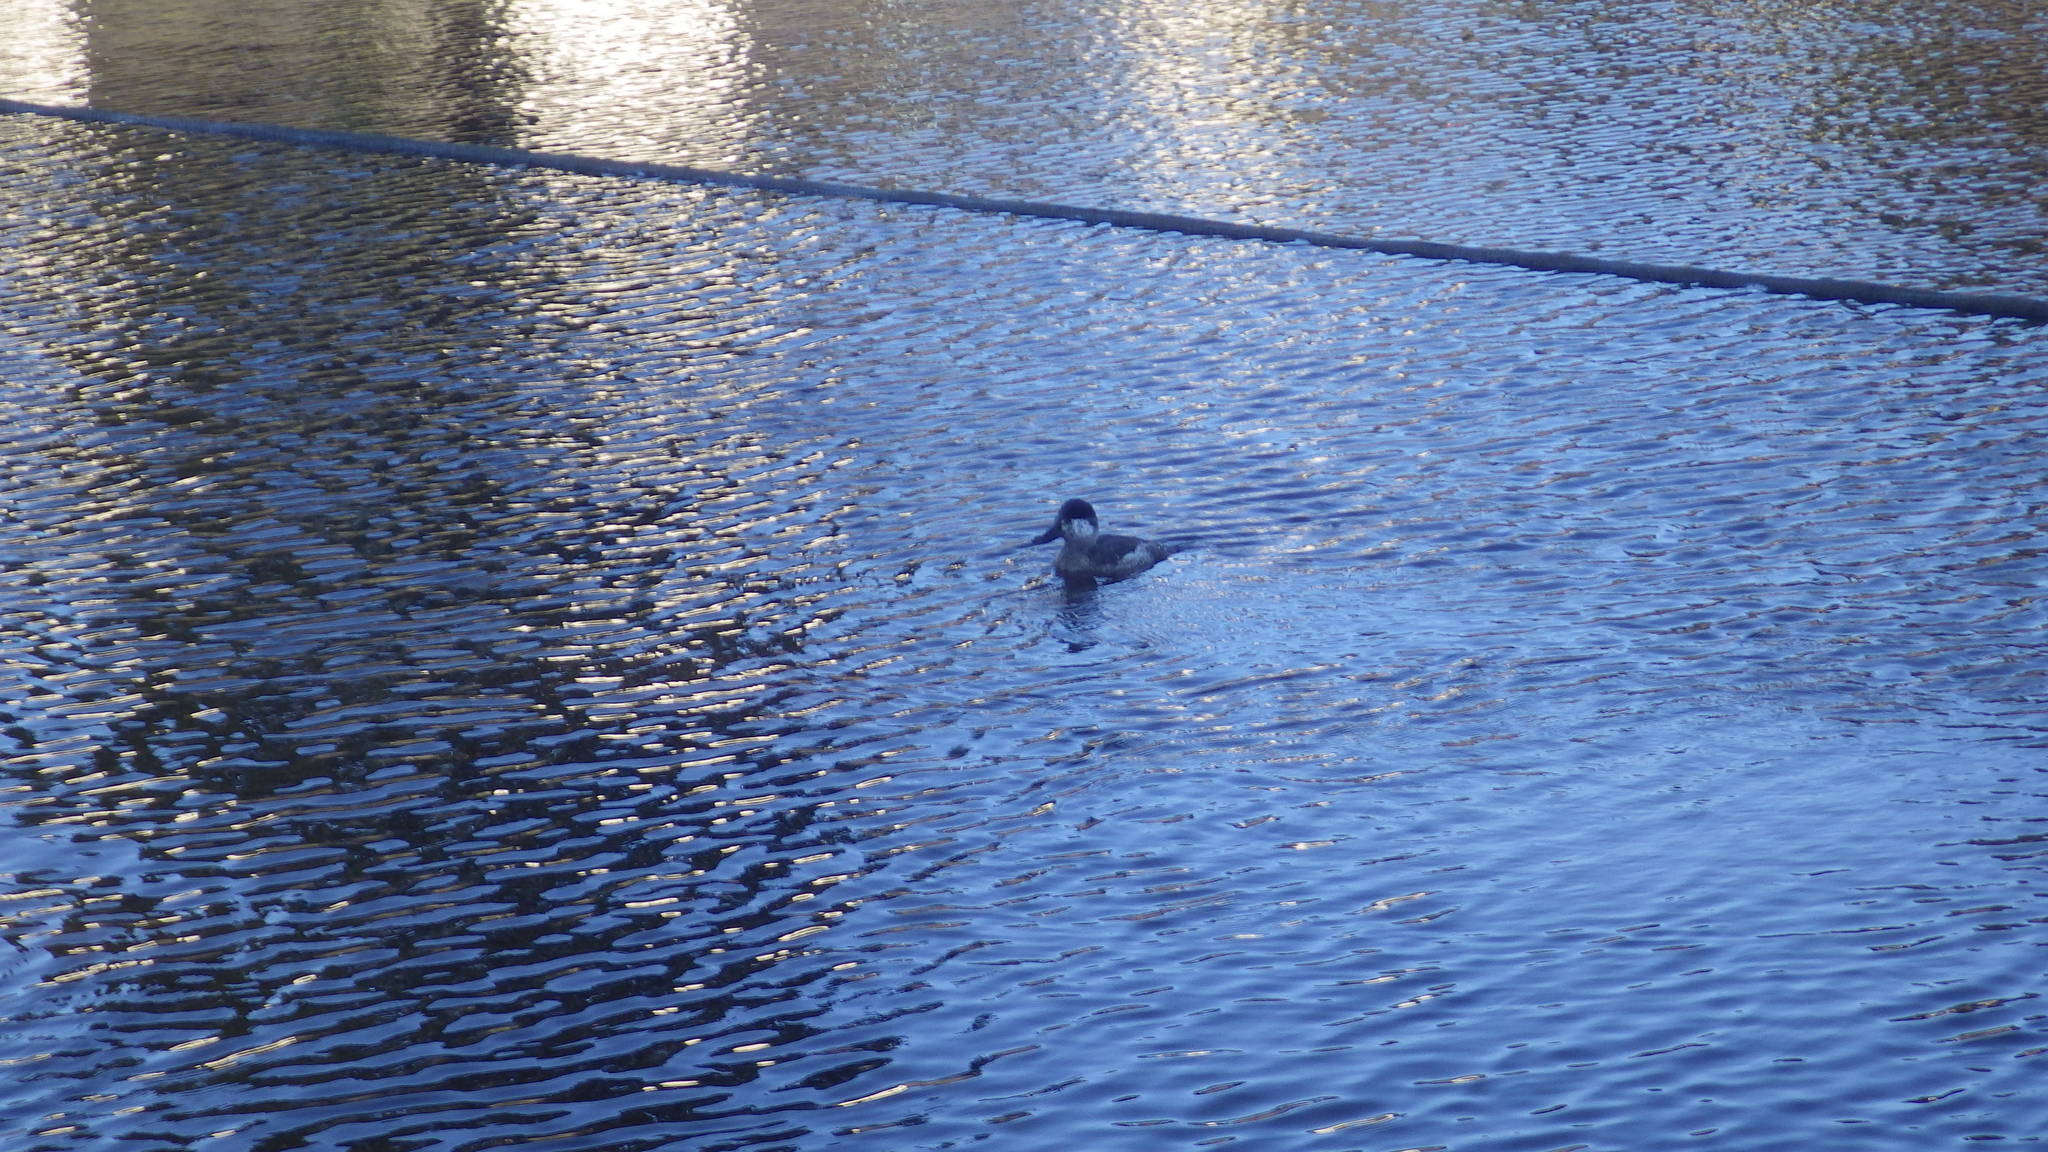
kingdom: Animalia
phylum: Chordata
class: Aves
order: Anseriformes
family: Anatidae
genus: Oxyura
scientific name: Oxyura jamaicensis
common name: Ruddy duck
